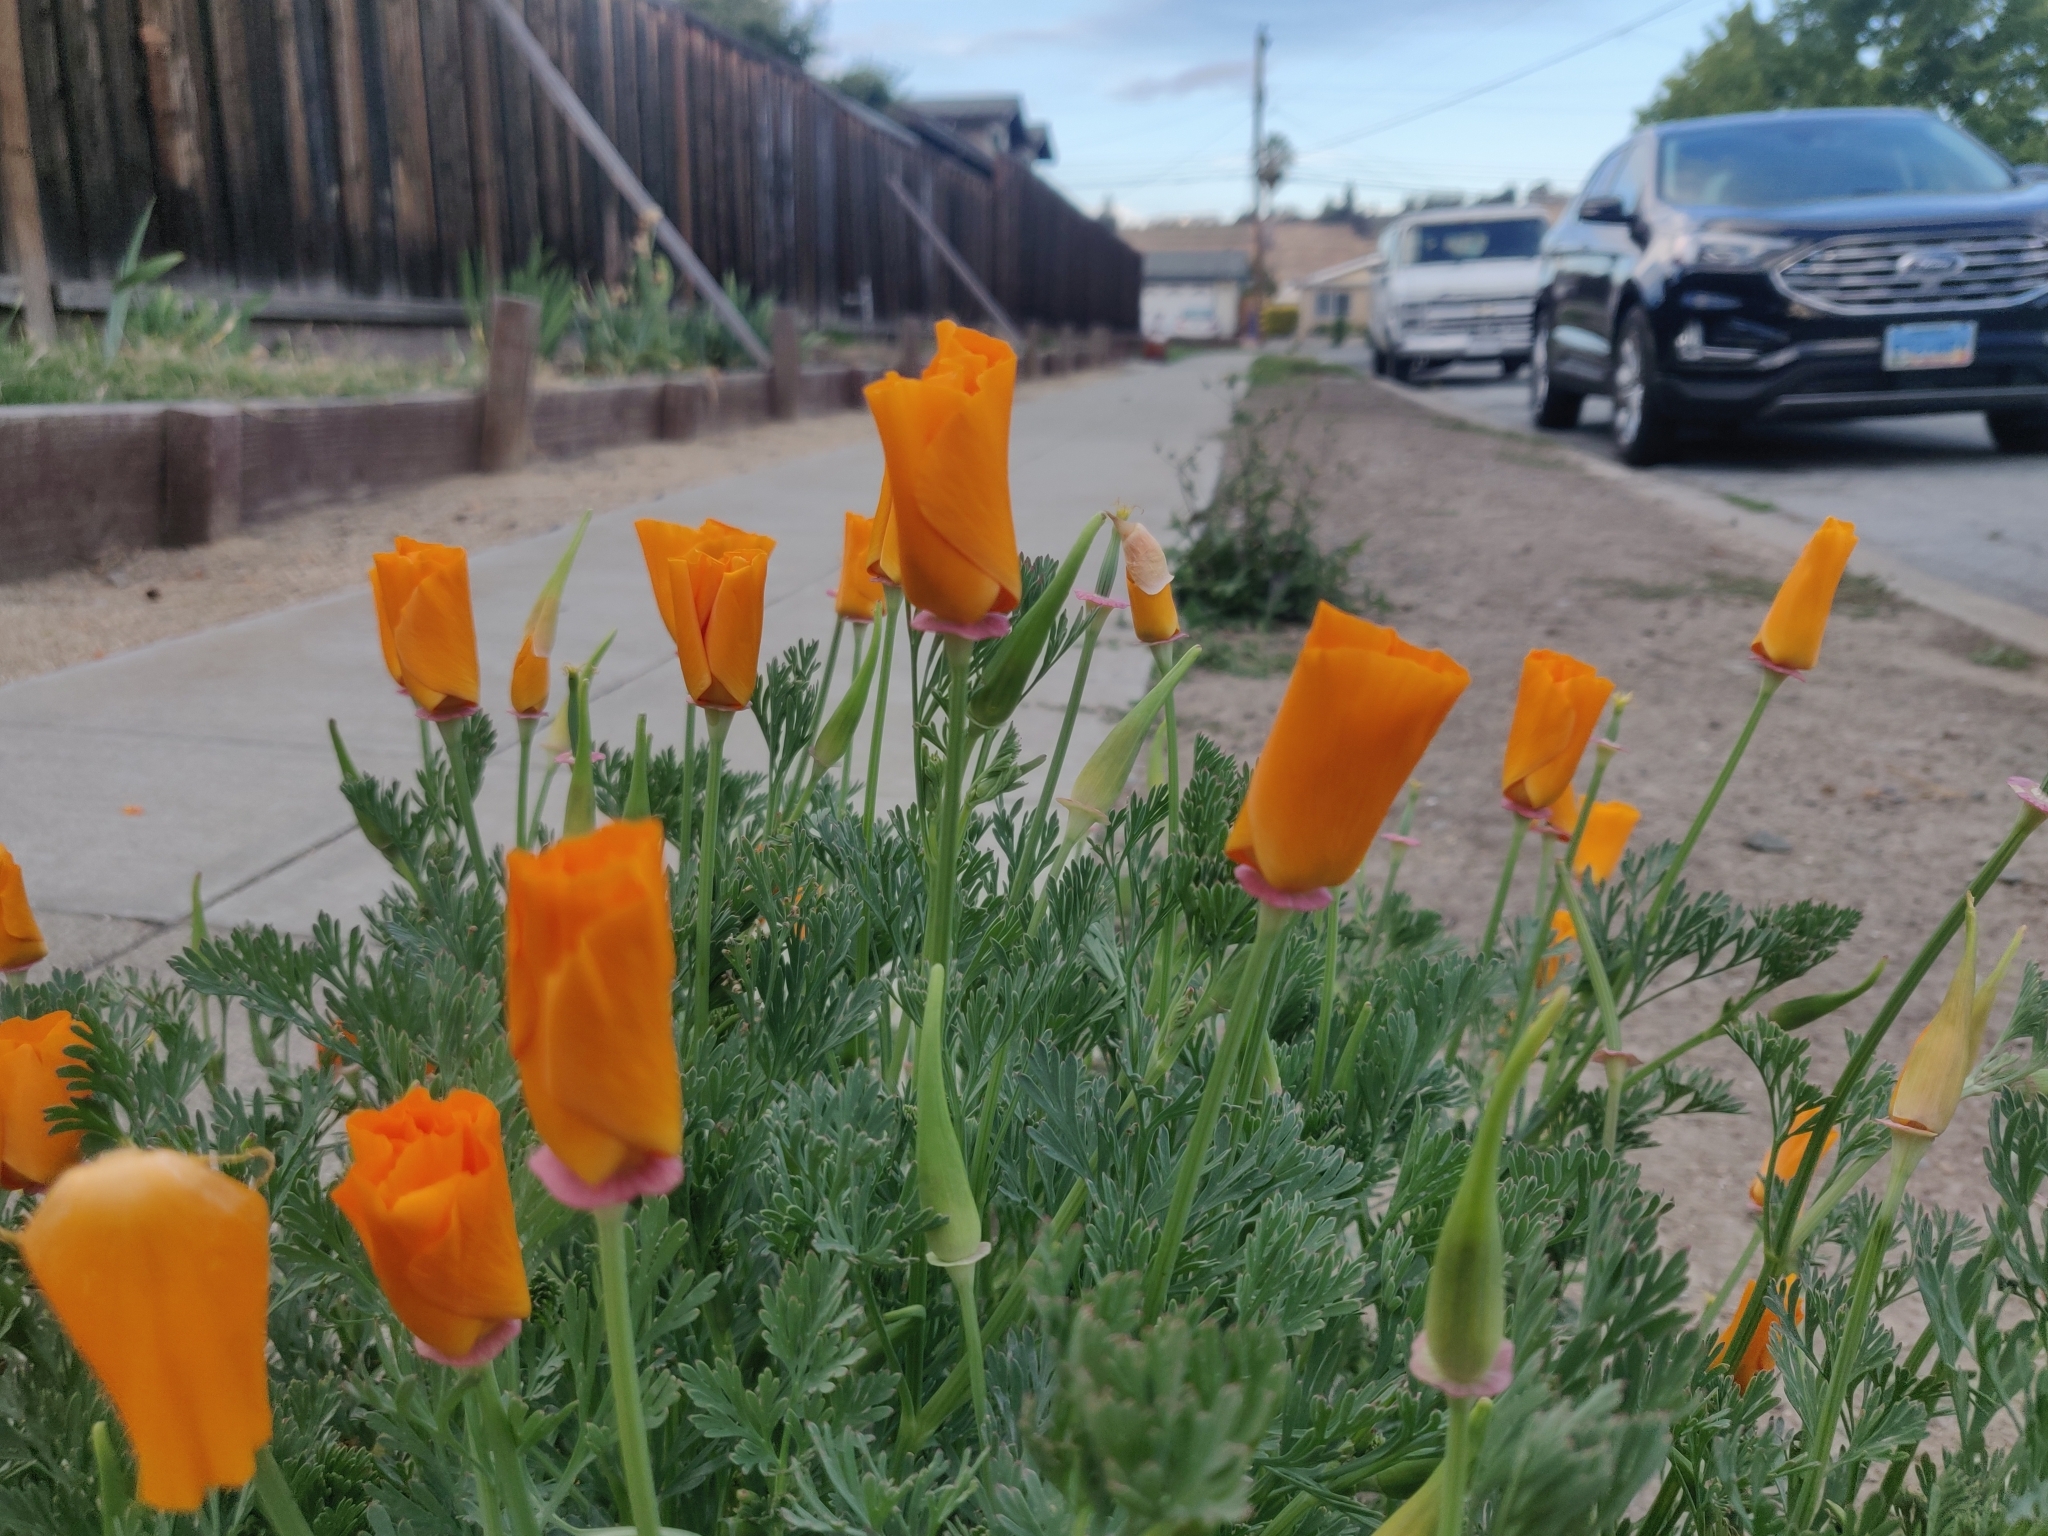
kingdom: Plantae
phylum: Tracheophyta
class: Magnoliopsida
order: Ranunculales
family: Papaveraceae
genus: Eschscholzia
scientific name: Eschscholzia californica
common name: California poppy
